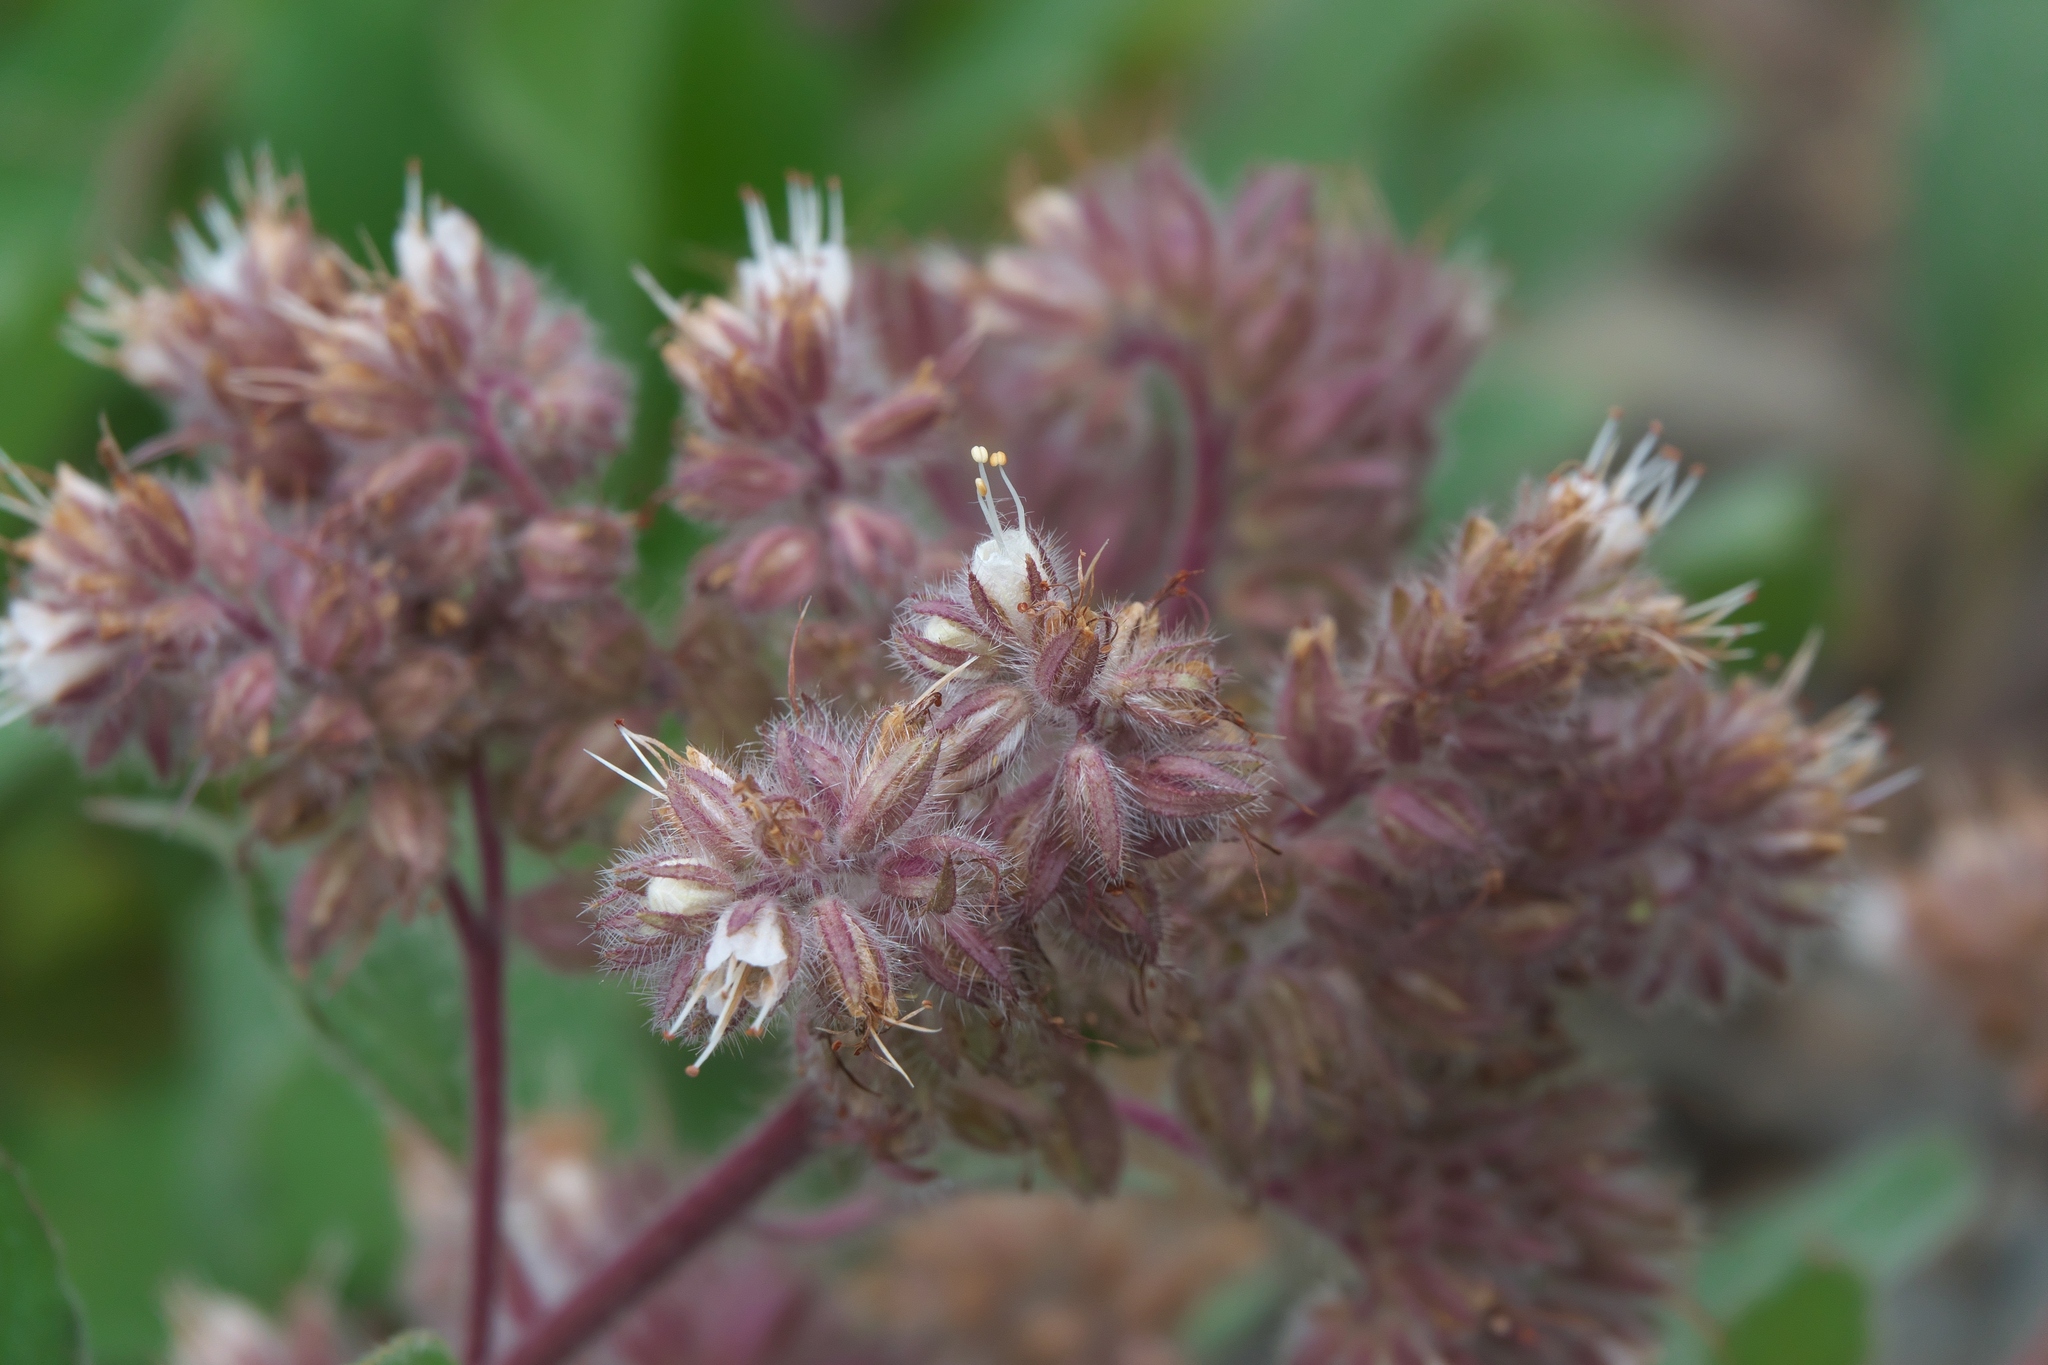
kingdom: Plantae
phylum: Tracheophyta
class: Magnoliopsida
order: Boraginales
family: Hydrophyllaceae
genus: Phacelia
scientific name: Phacelia hastata
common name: Silver-leaved phacelia
